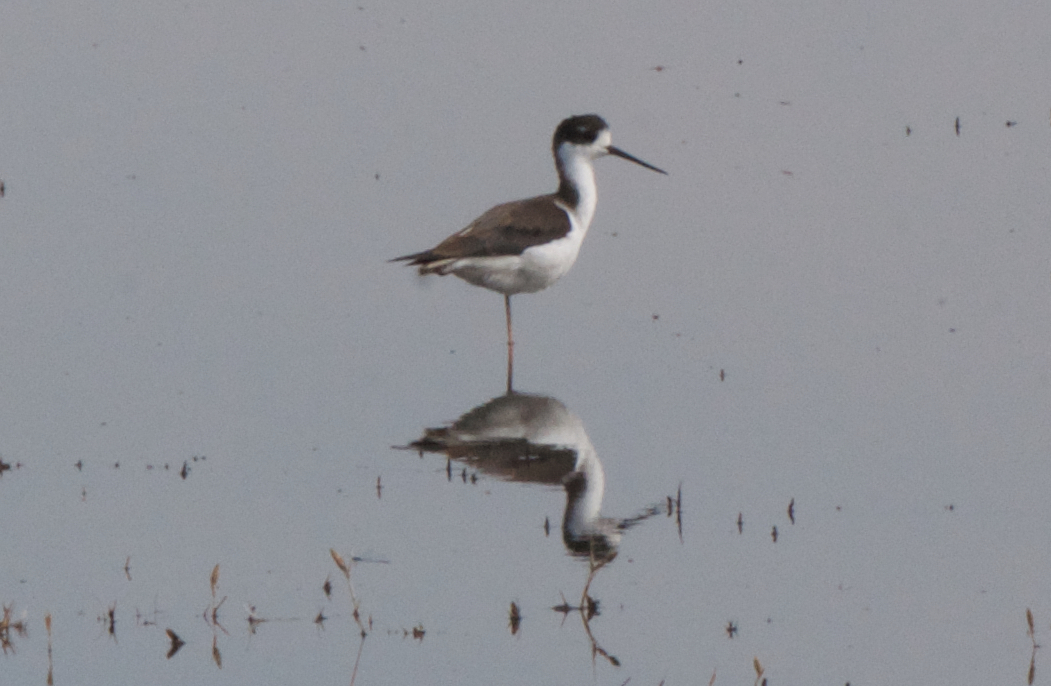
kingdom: Animalia
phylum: Chordata
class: Aves
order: Charadriiformes
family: Recurvirostridae
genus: Himantopus
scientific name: Himantopus mexicanus
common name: Black-necked stilt
